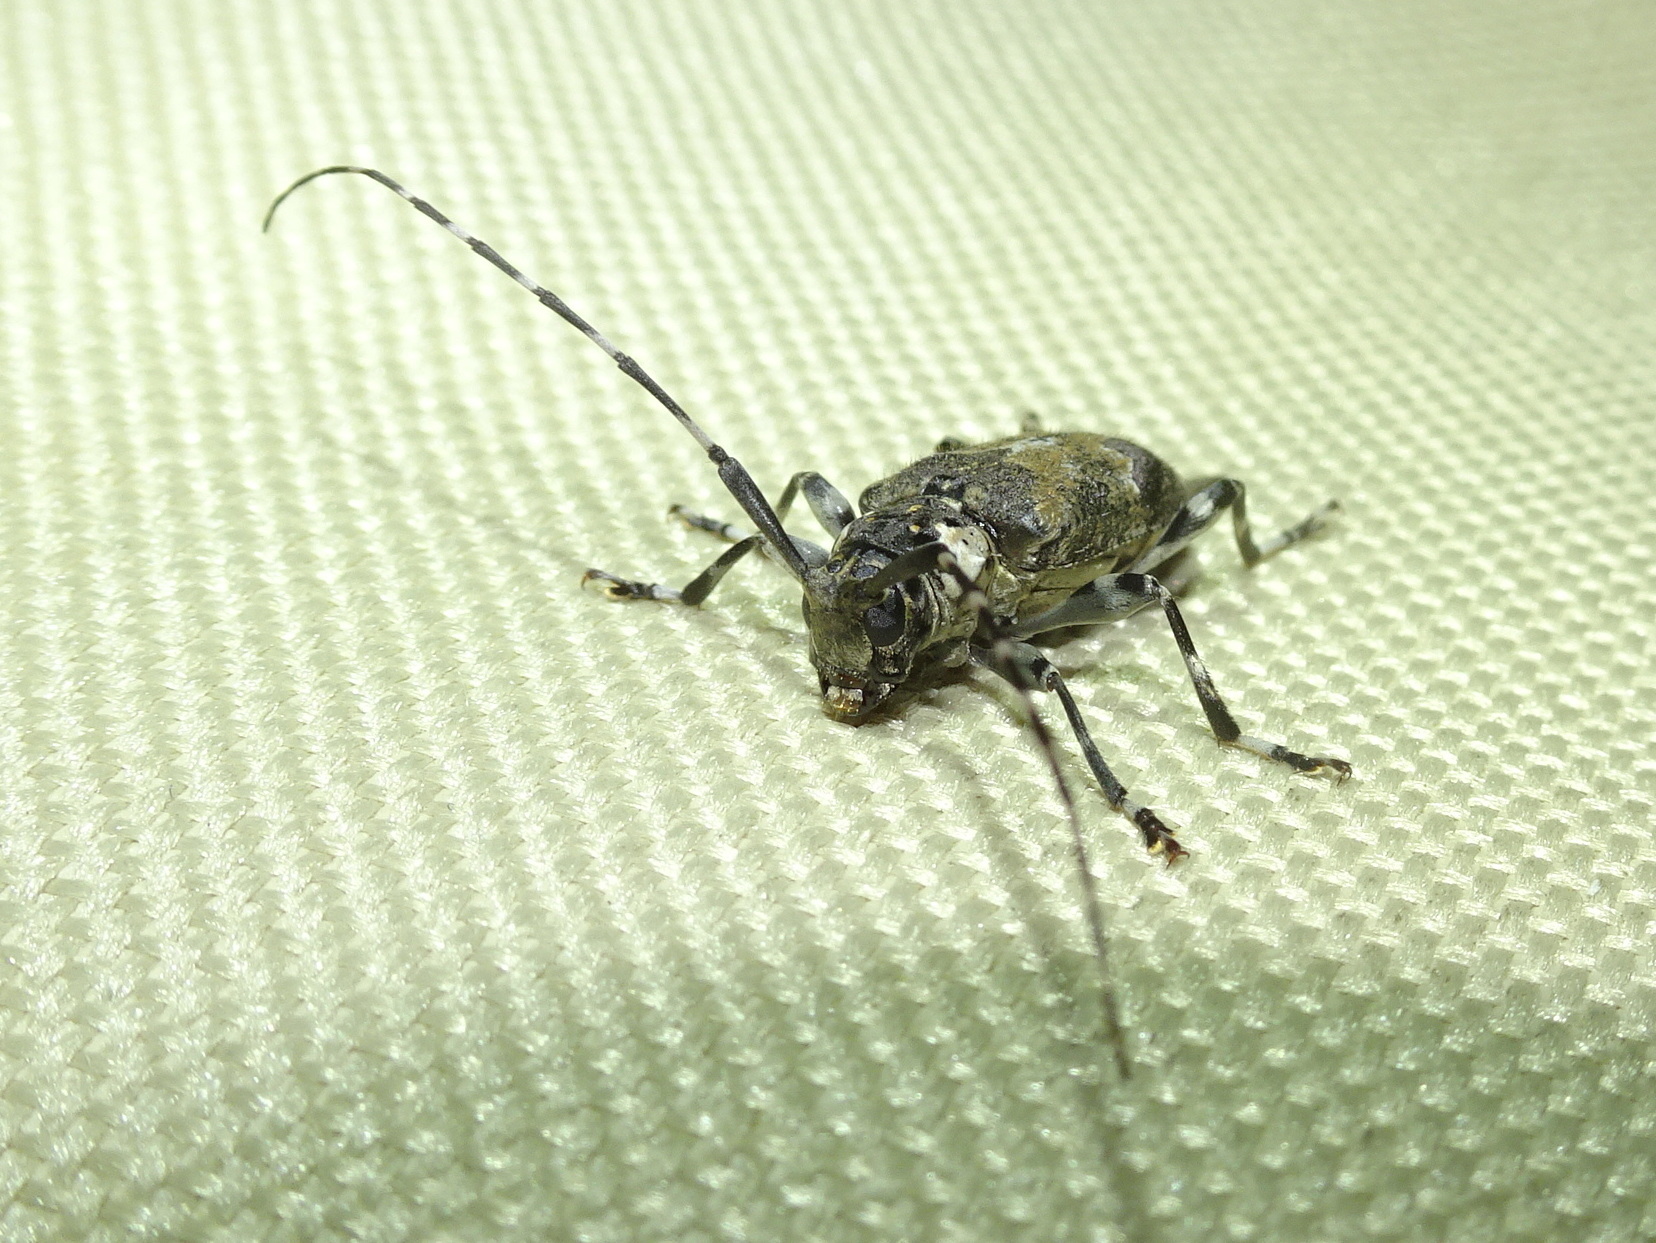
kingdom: Animalia
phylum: Arthropoda
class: Insecta
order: Coleoptera
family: Cerambycidae
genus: Graphisurus
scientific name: Graphisurus triangulifer
